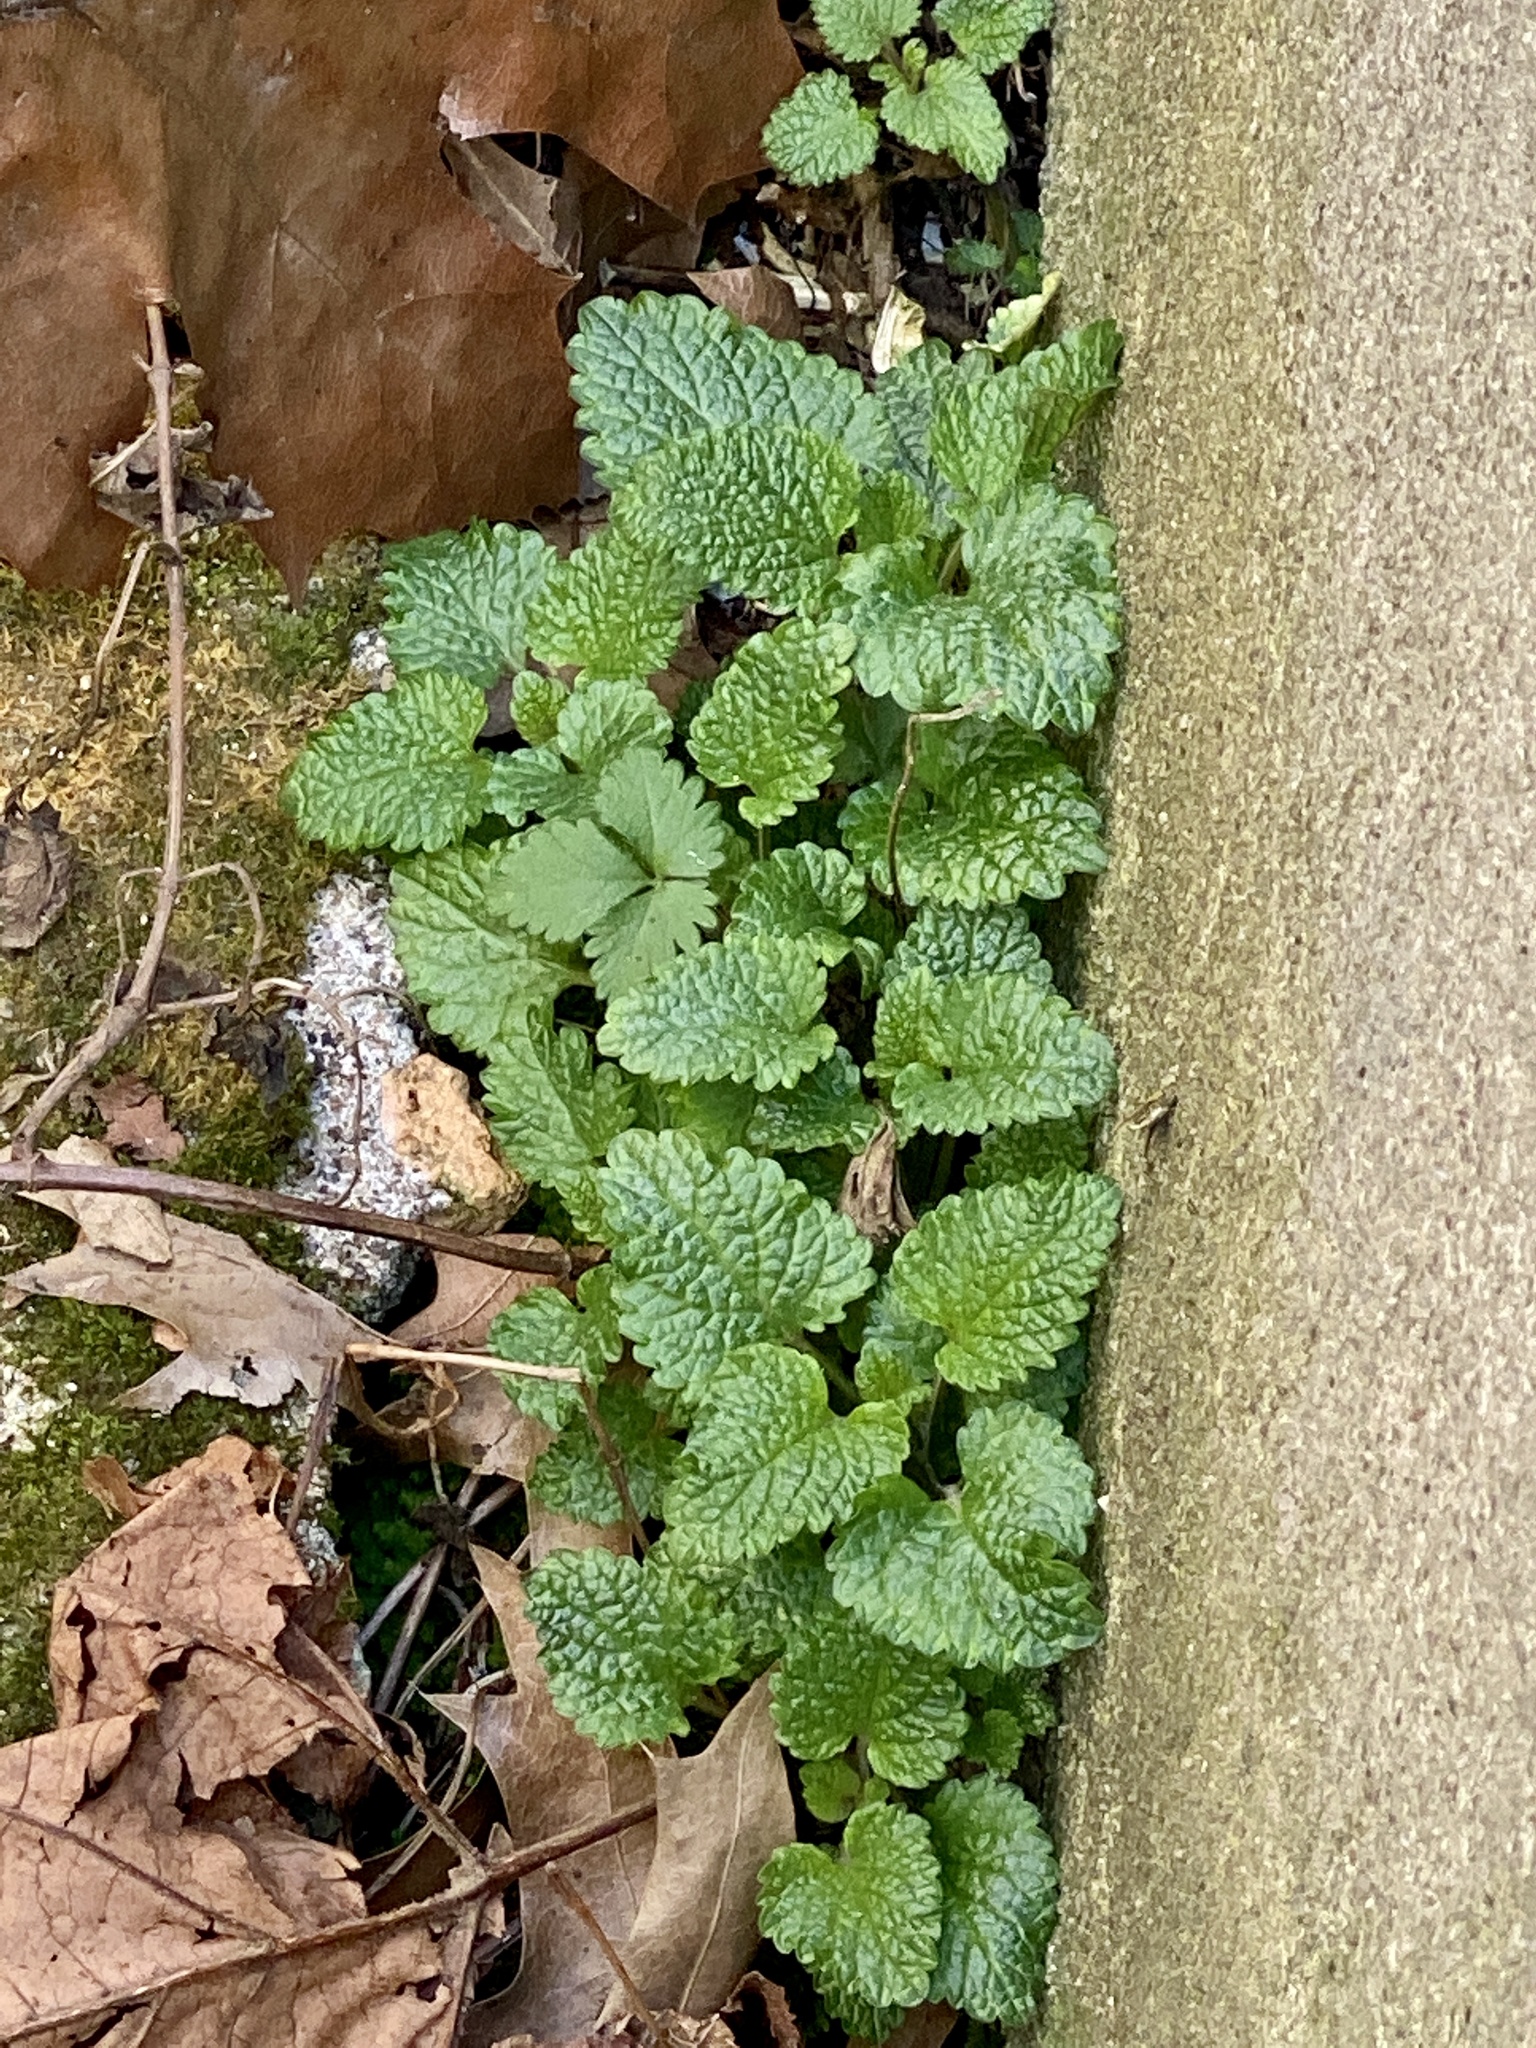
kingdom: Plantae
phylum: Tracheophyta
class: Magnoliopsida
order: Lamiales
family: Lamiaceae
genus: Melissa
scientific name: Melissa officinalis
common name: Balm
